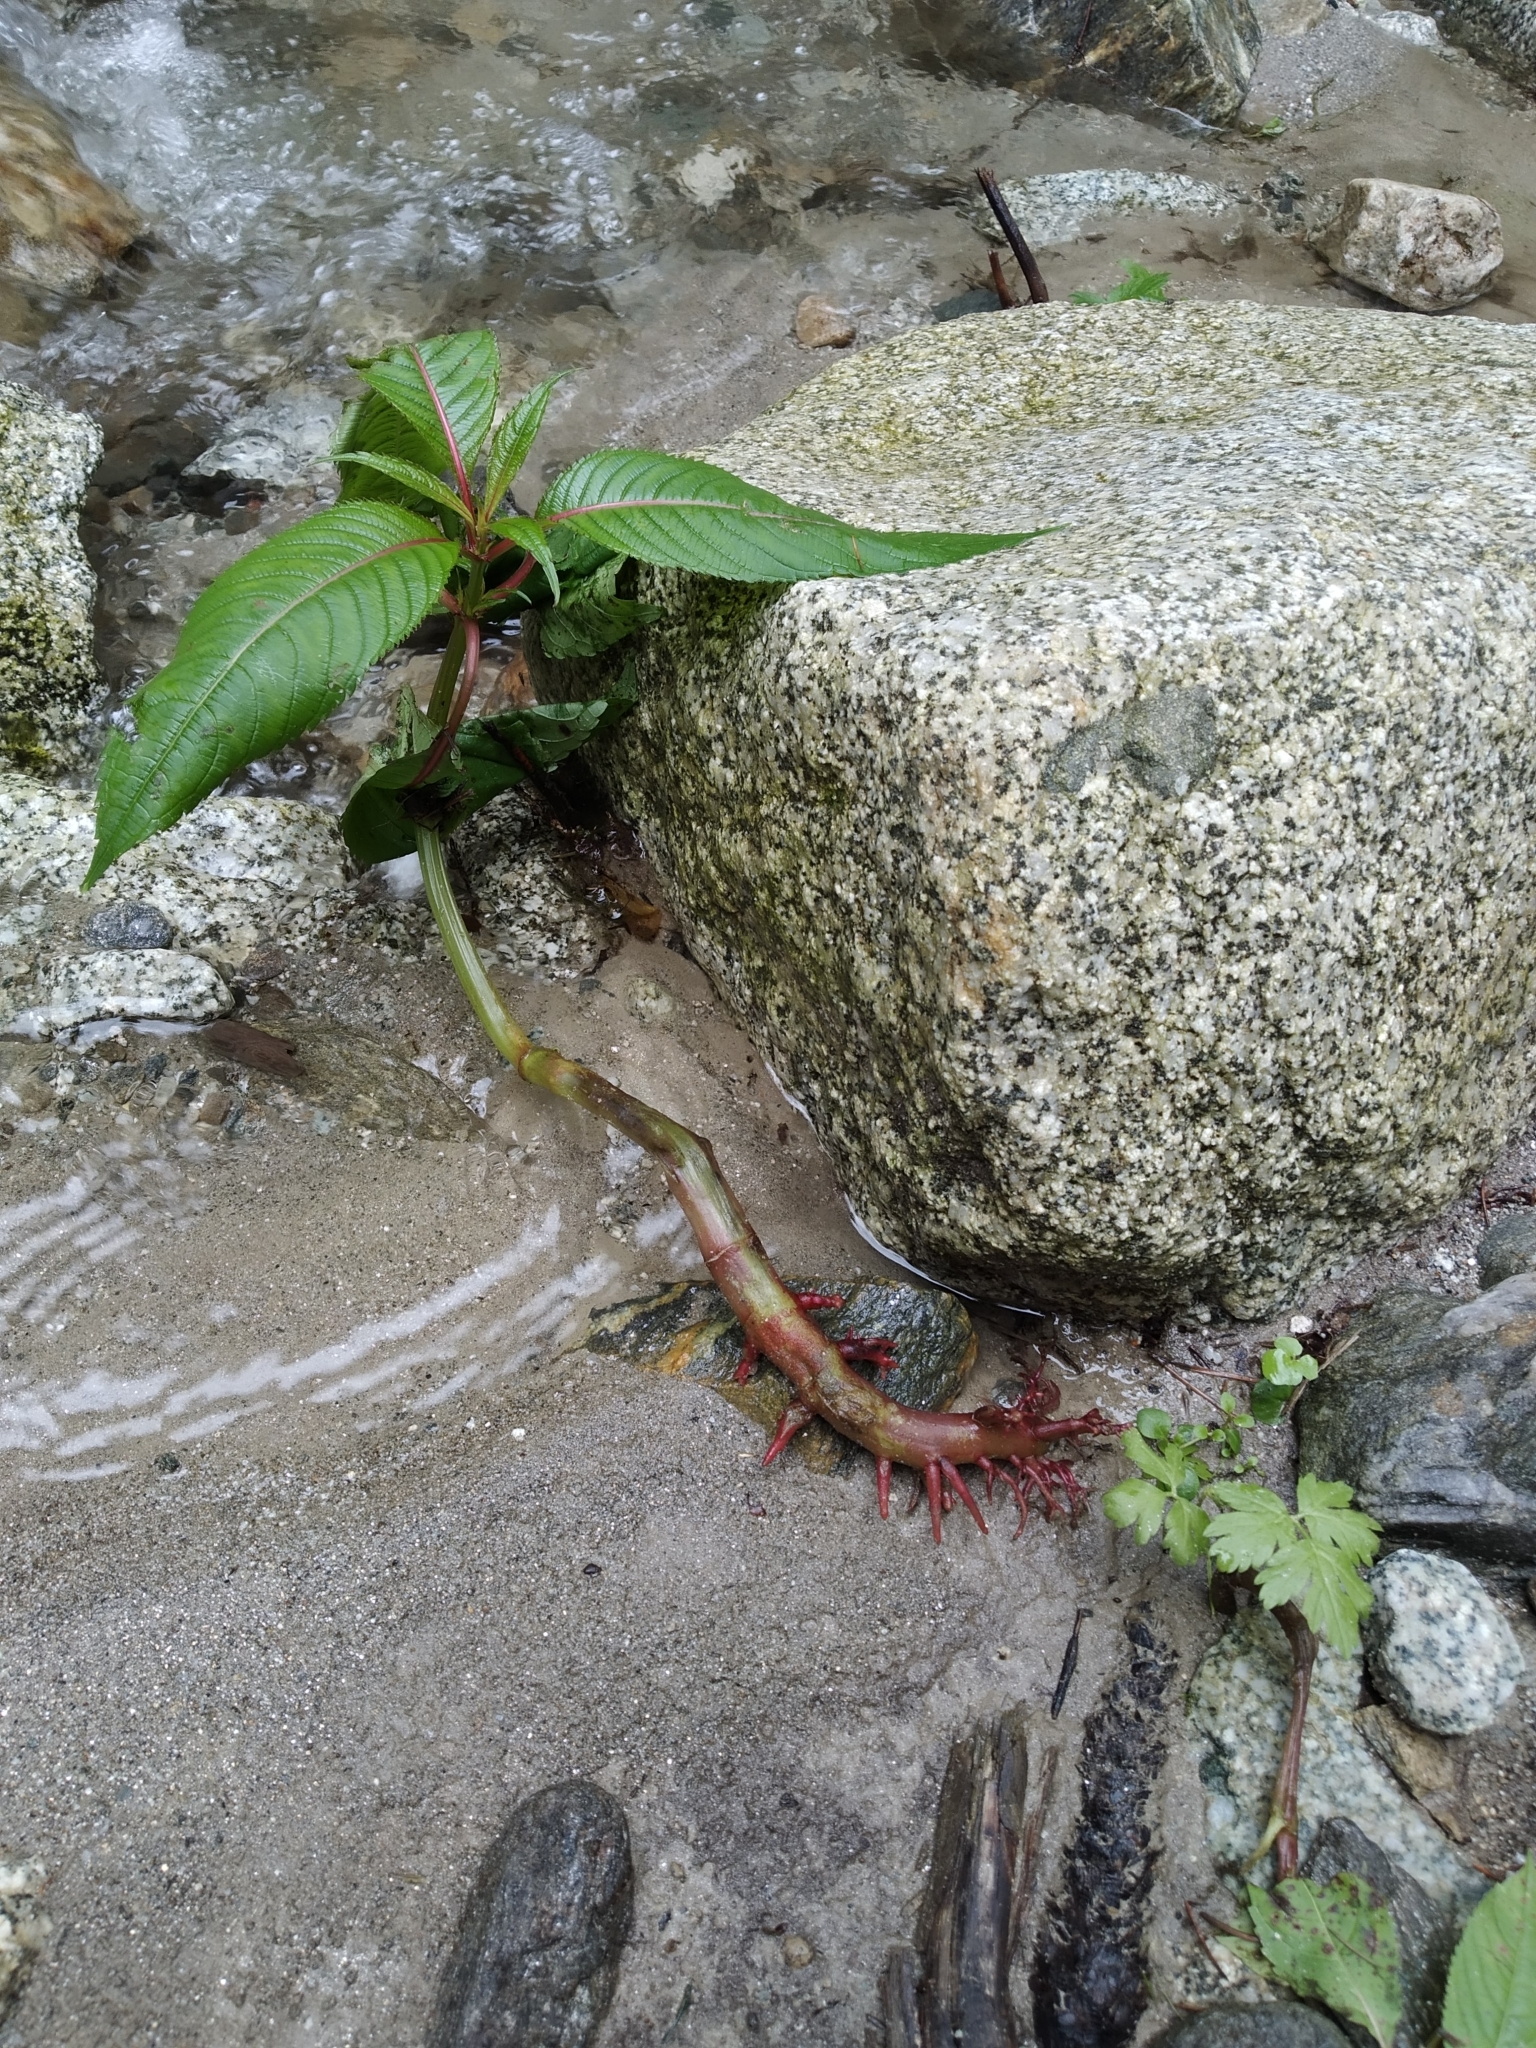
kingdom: Plantae
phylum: Tracheophyta
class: Magnoliopsida
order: Ericales
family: Balsaminaceae
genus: Impatiens
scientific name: Impatiens glandulifera
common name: Himalayan balsam
